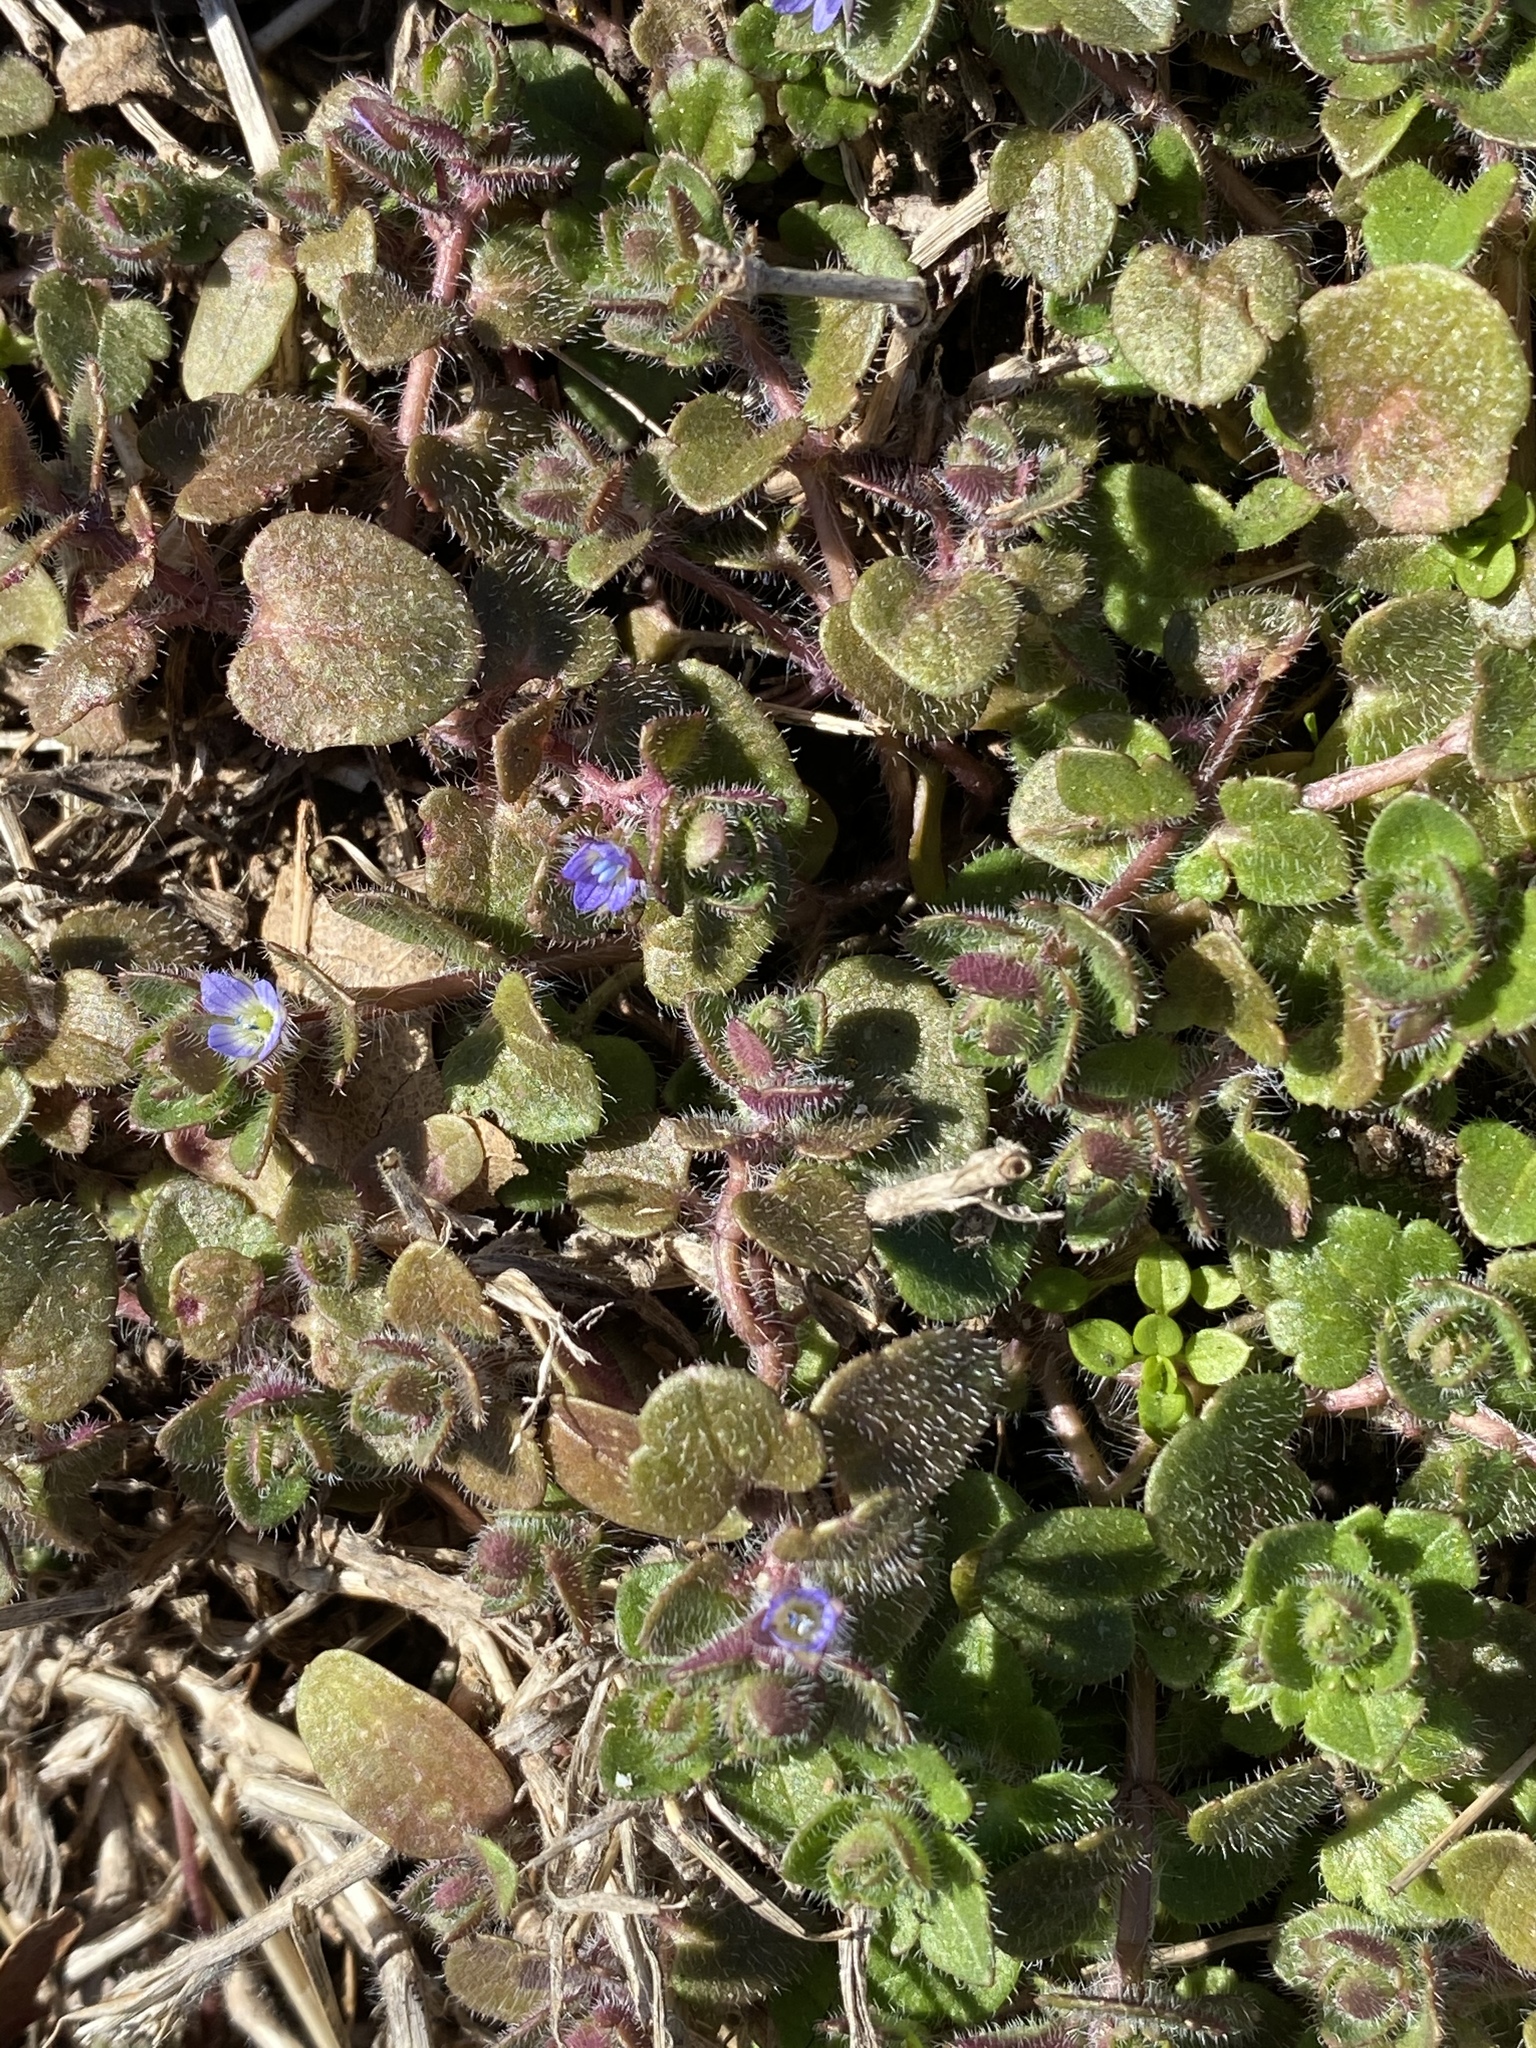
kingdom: Plantae
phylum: Tracheophyta
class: Magnoliopsida
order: Lamiales
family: Plantaginaceae
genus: Veronica
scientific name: Veronica hederifolia
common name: Ivy-leaved speedwell
